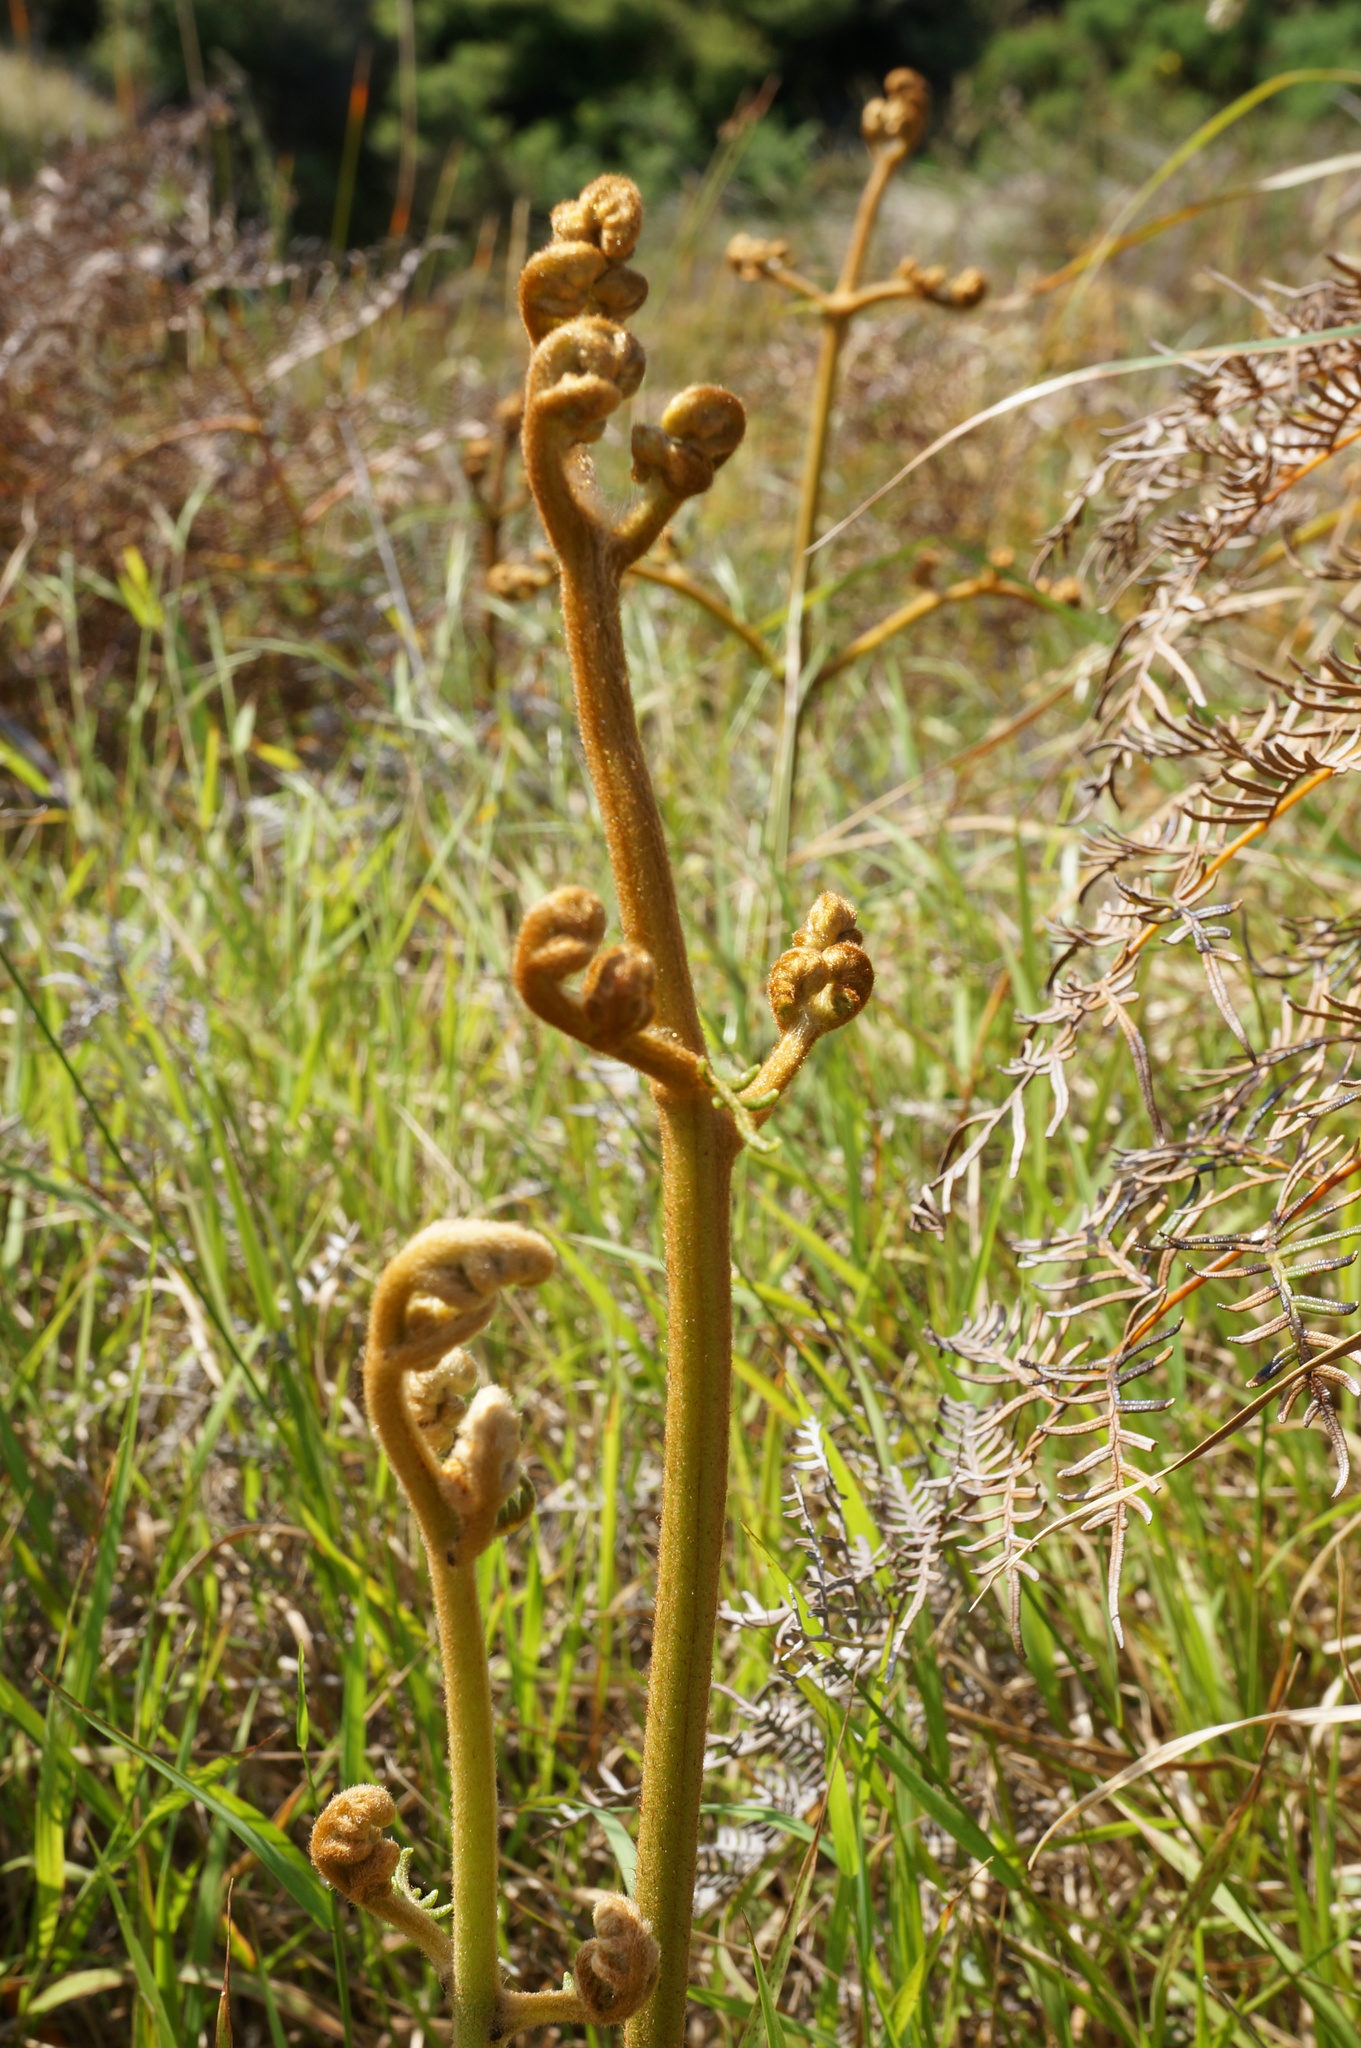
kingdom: Plantae
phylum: Tracheophyta
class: Polypodiopsida
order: Polypodiales
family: Dennstaedtiaceae
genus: Pteridium
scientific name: Pteridium esculentum
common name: Bracken fern
